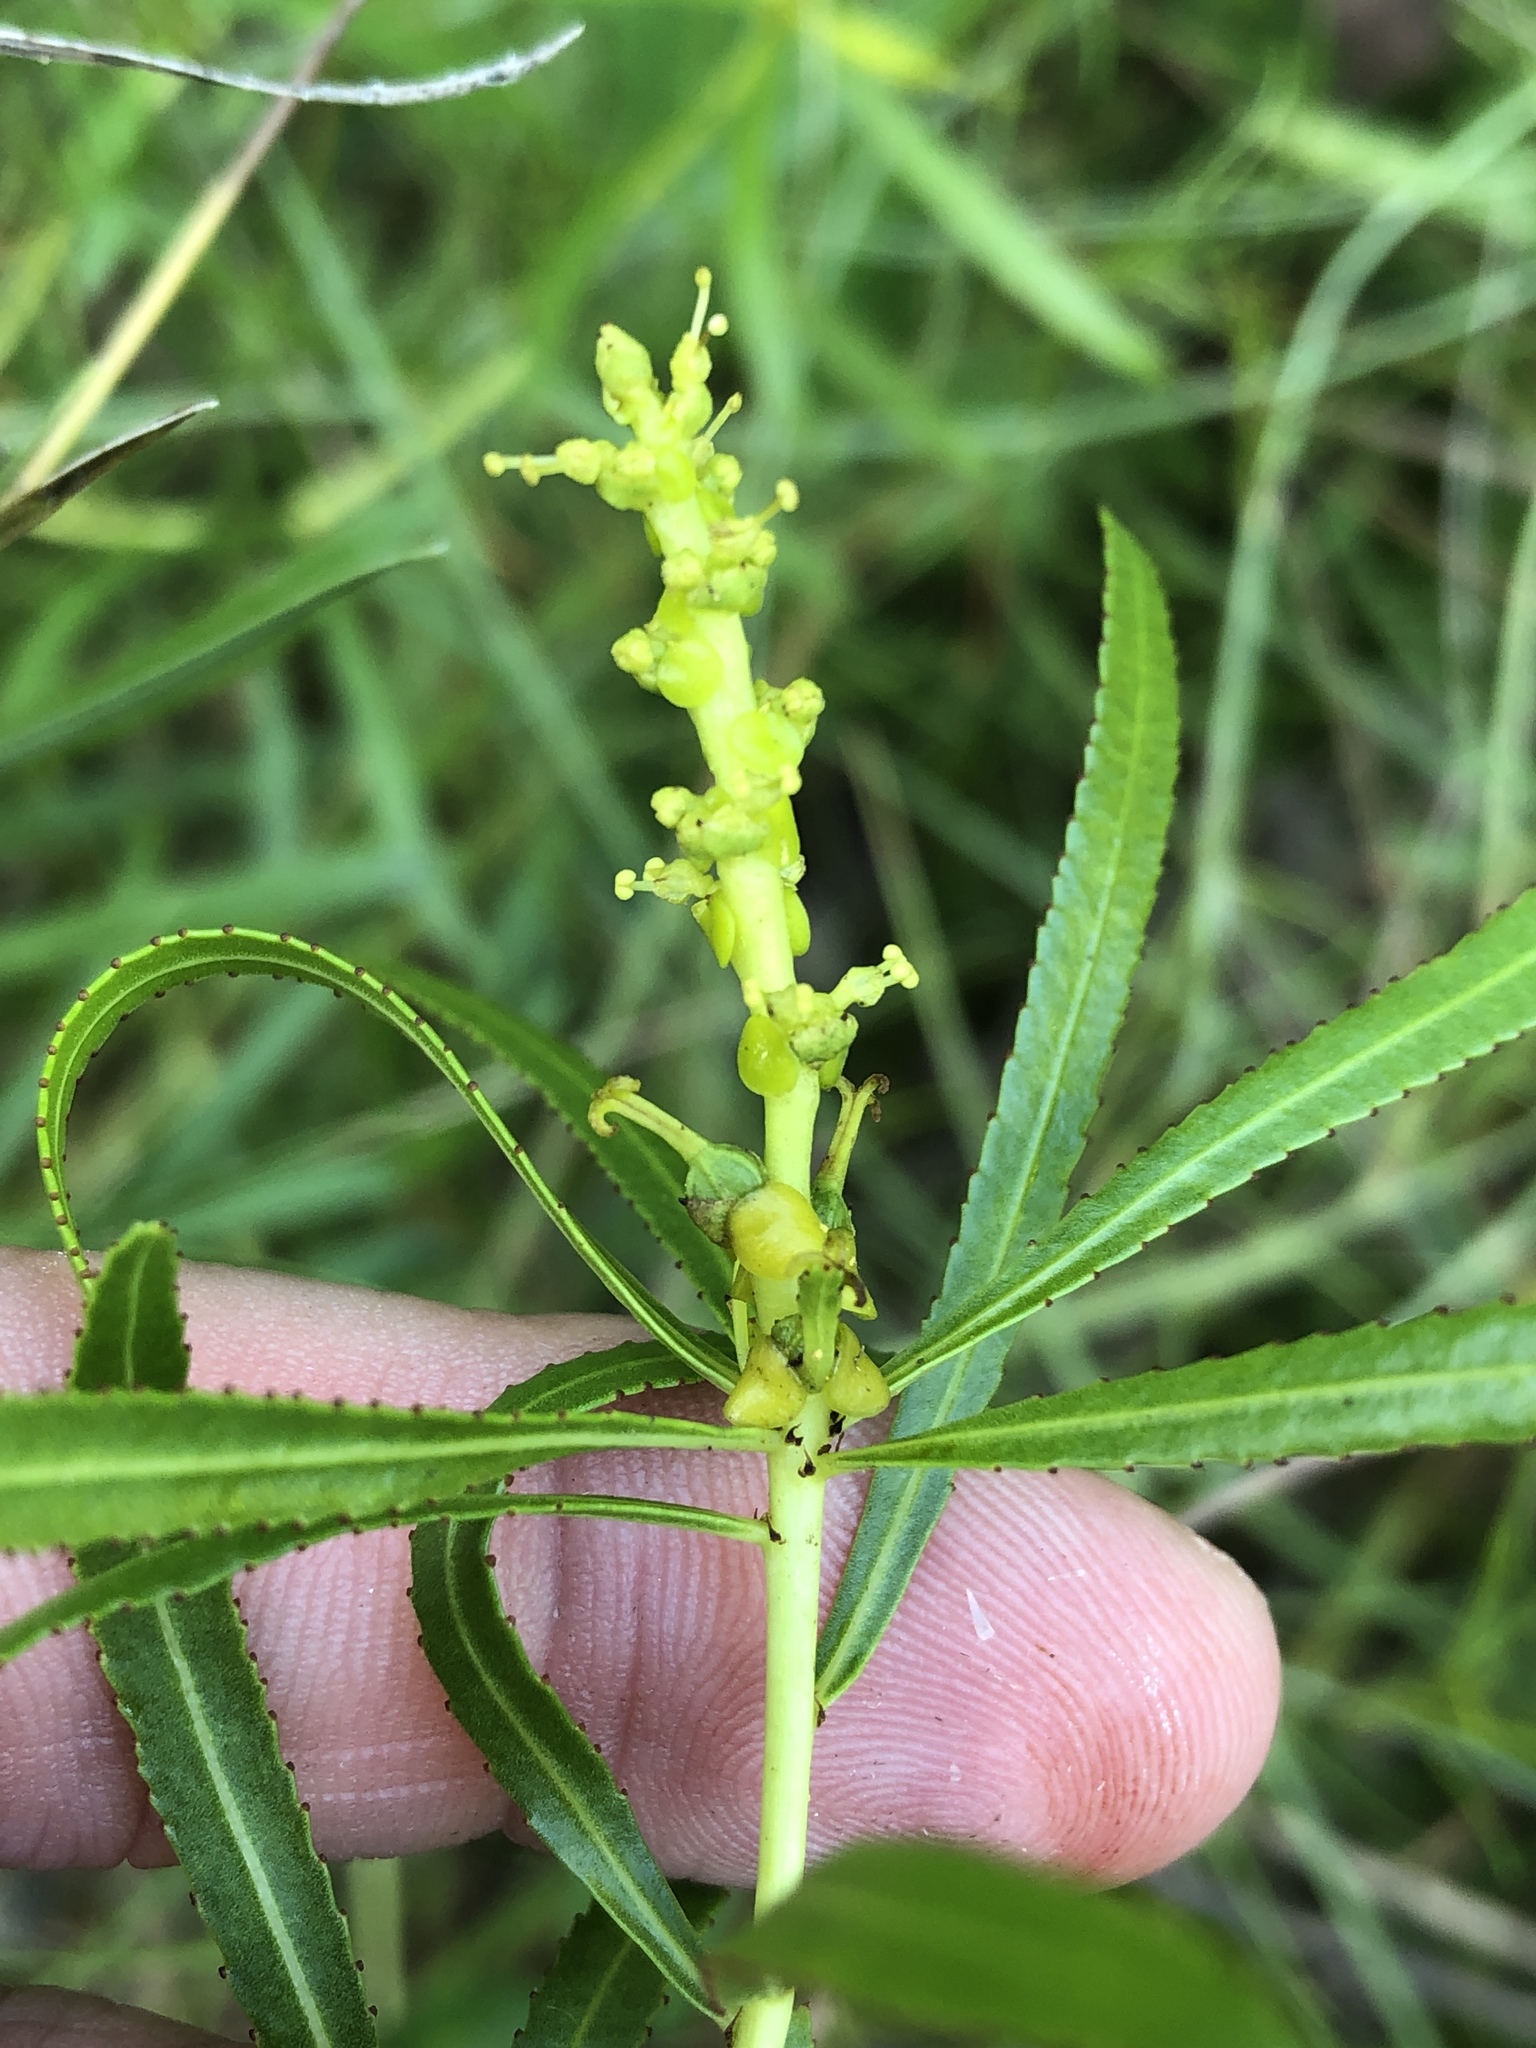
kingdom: Plantae
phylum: Tracheophyta
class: Magnoliopsida
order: Malpighiales
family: Euphorbiaceae
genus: Stillingia
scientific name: Stillingia texana
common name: Texas stillingia
